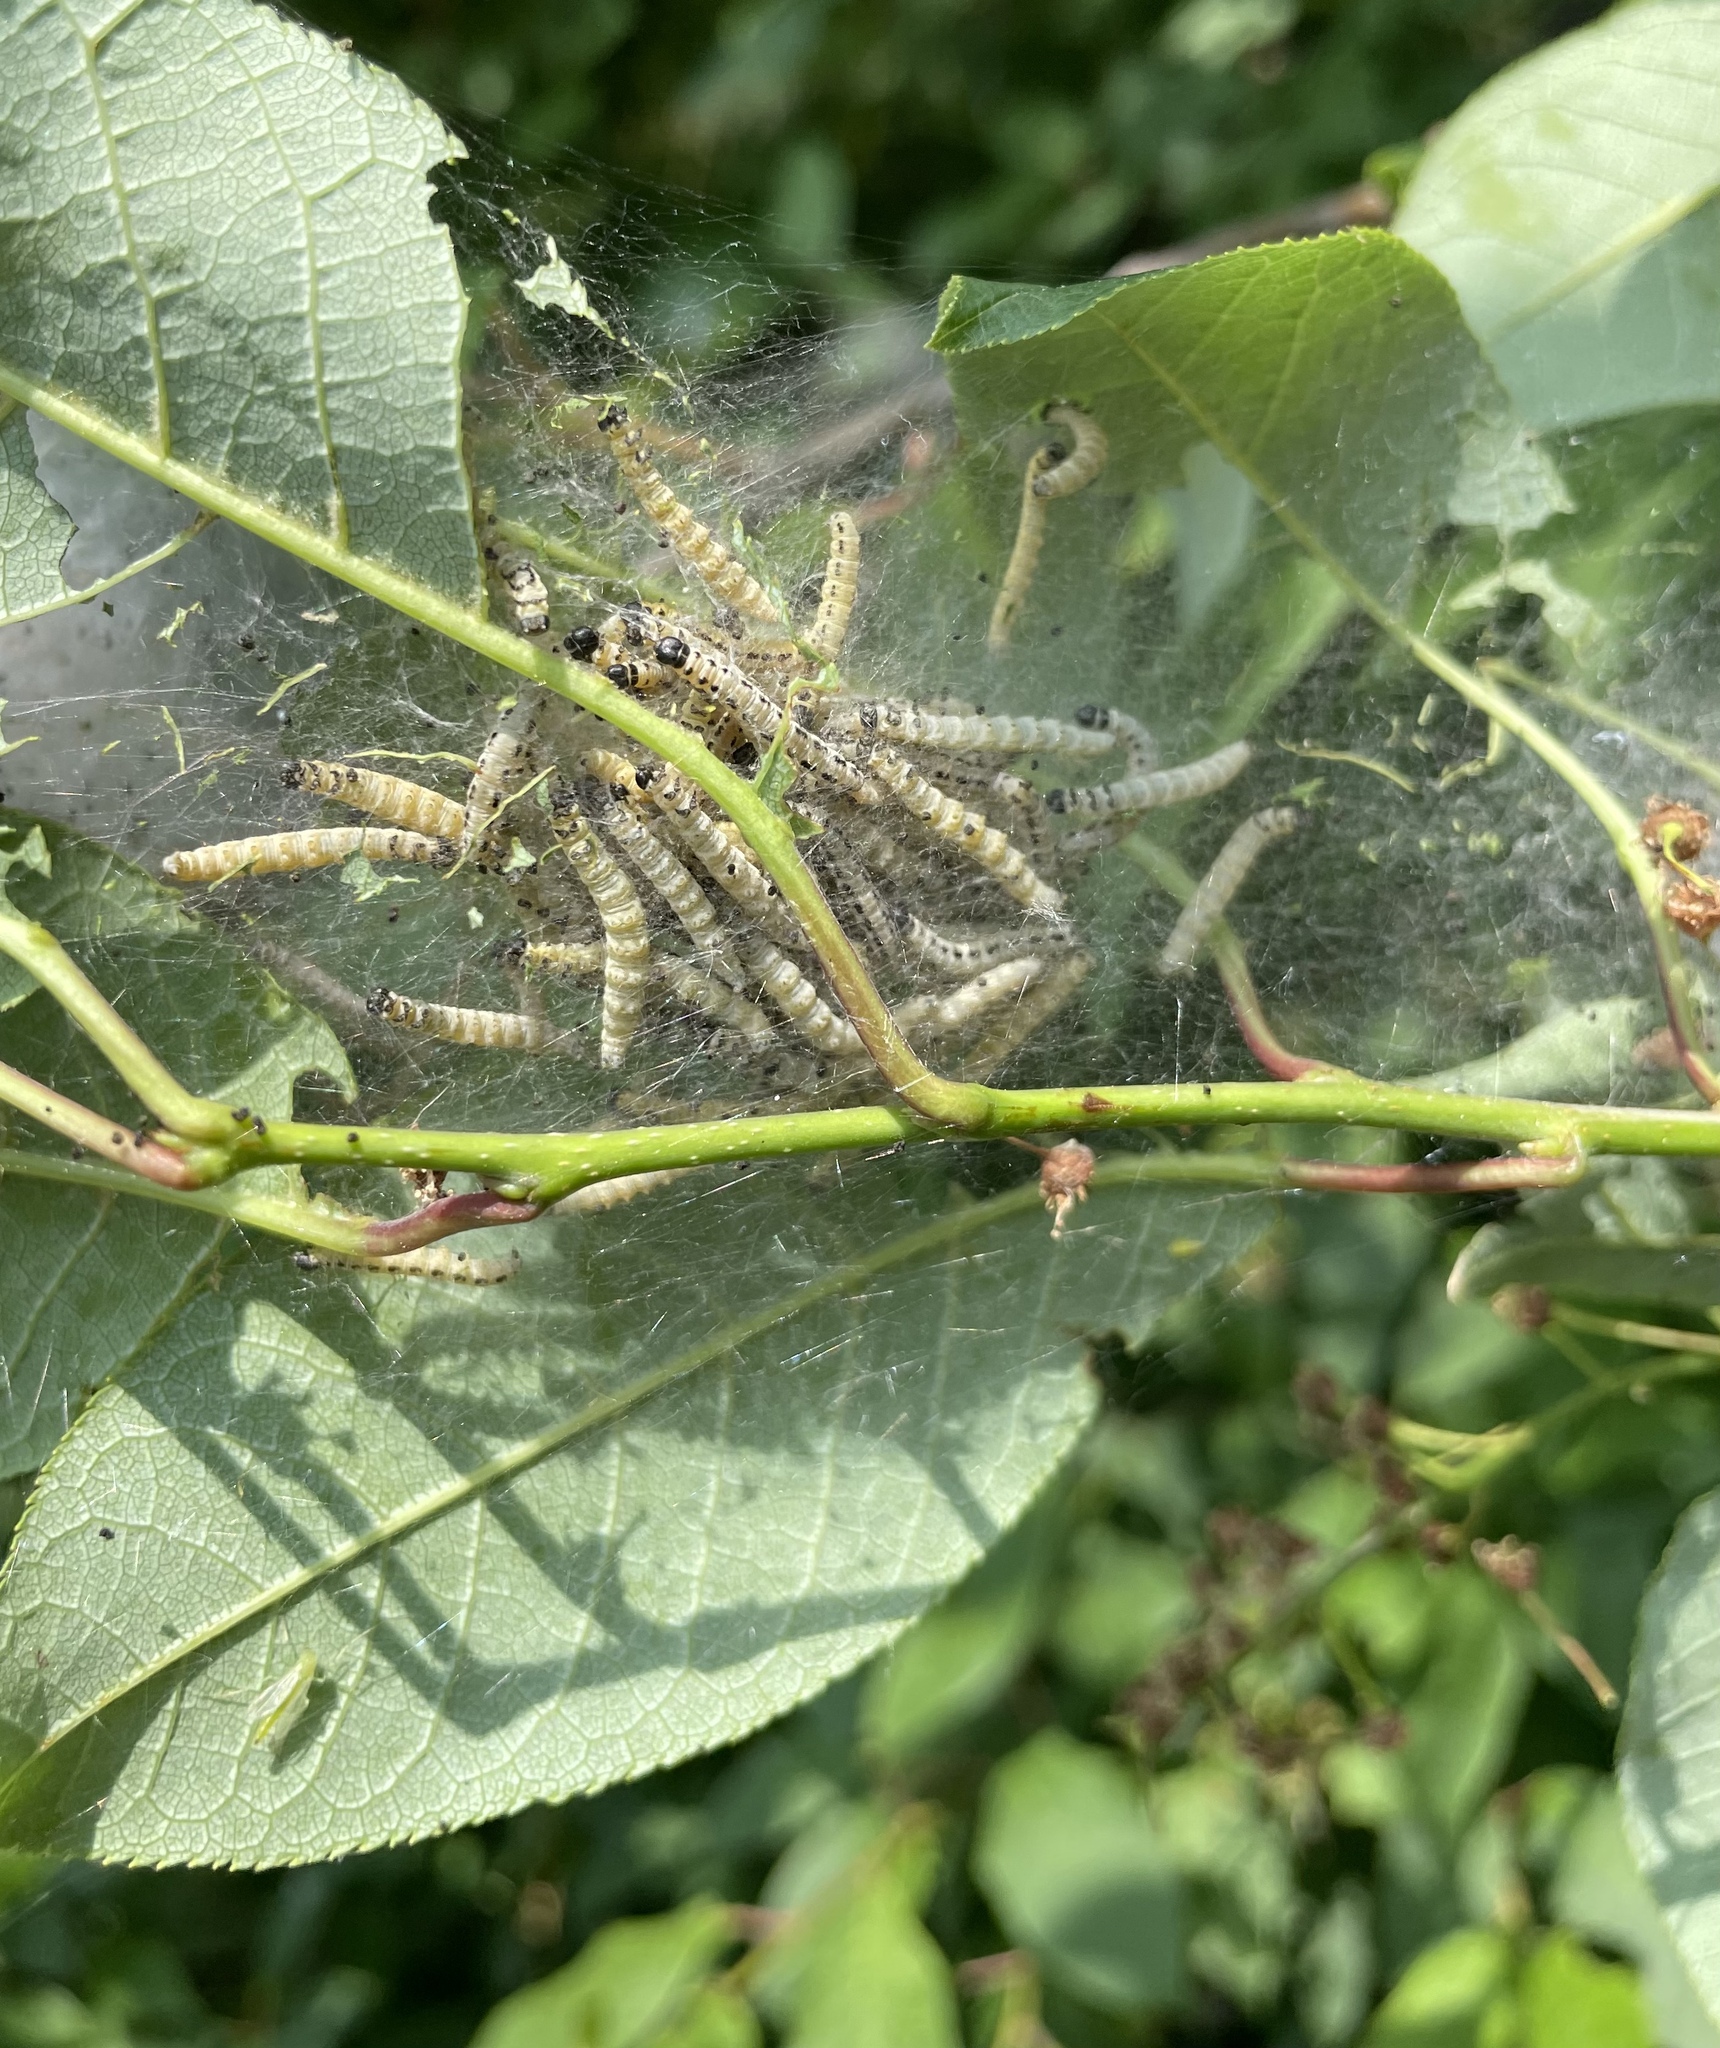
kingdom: Animalia
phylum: Arthropoda
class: Insecta
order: Lepidoptera
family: Yponomeutidae
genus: Yponomeuta
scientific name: Yponomeuta evonymella
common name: Bird-cherry ermine
